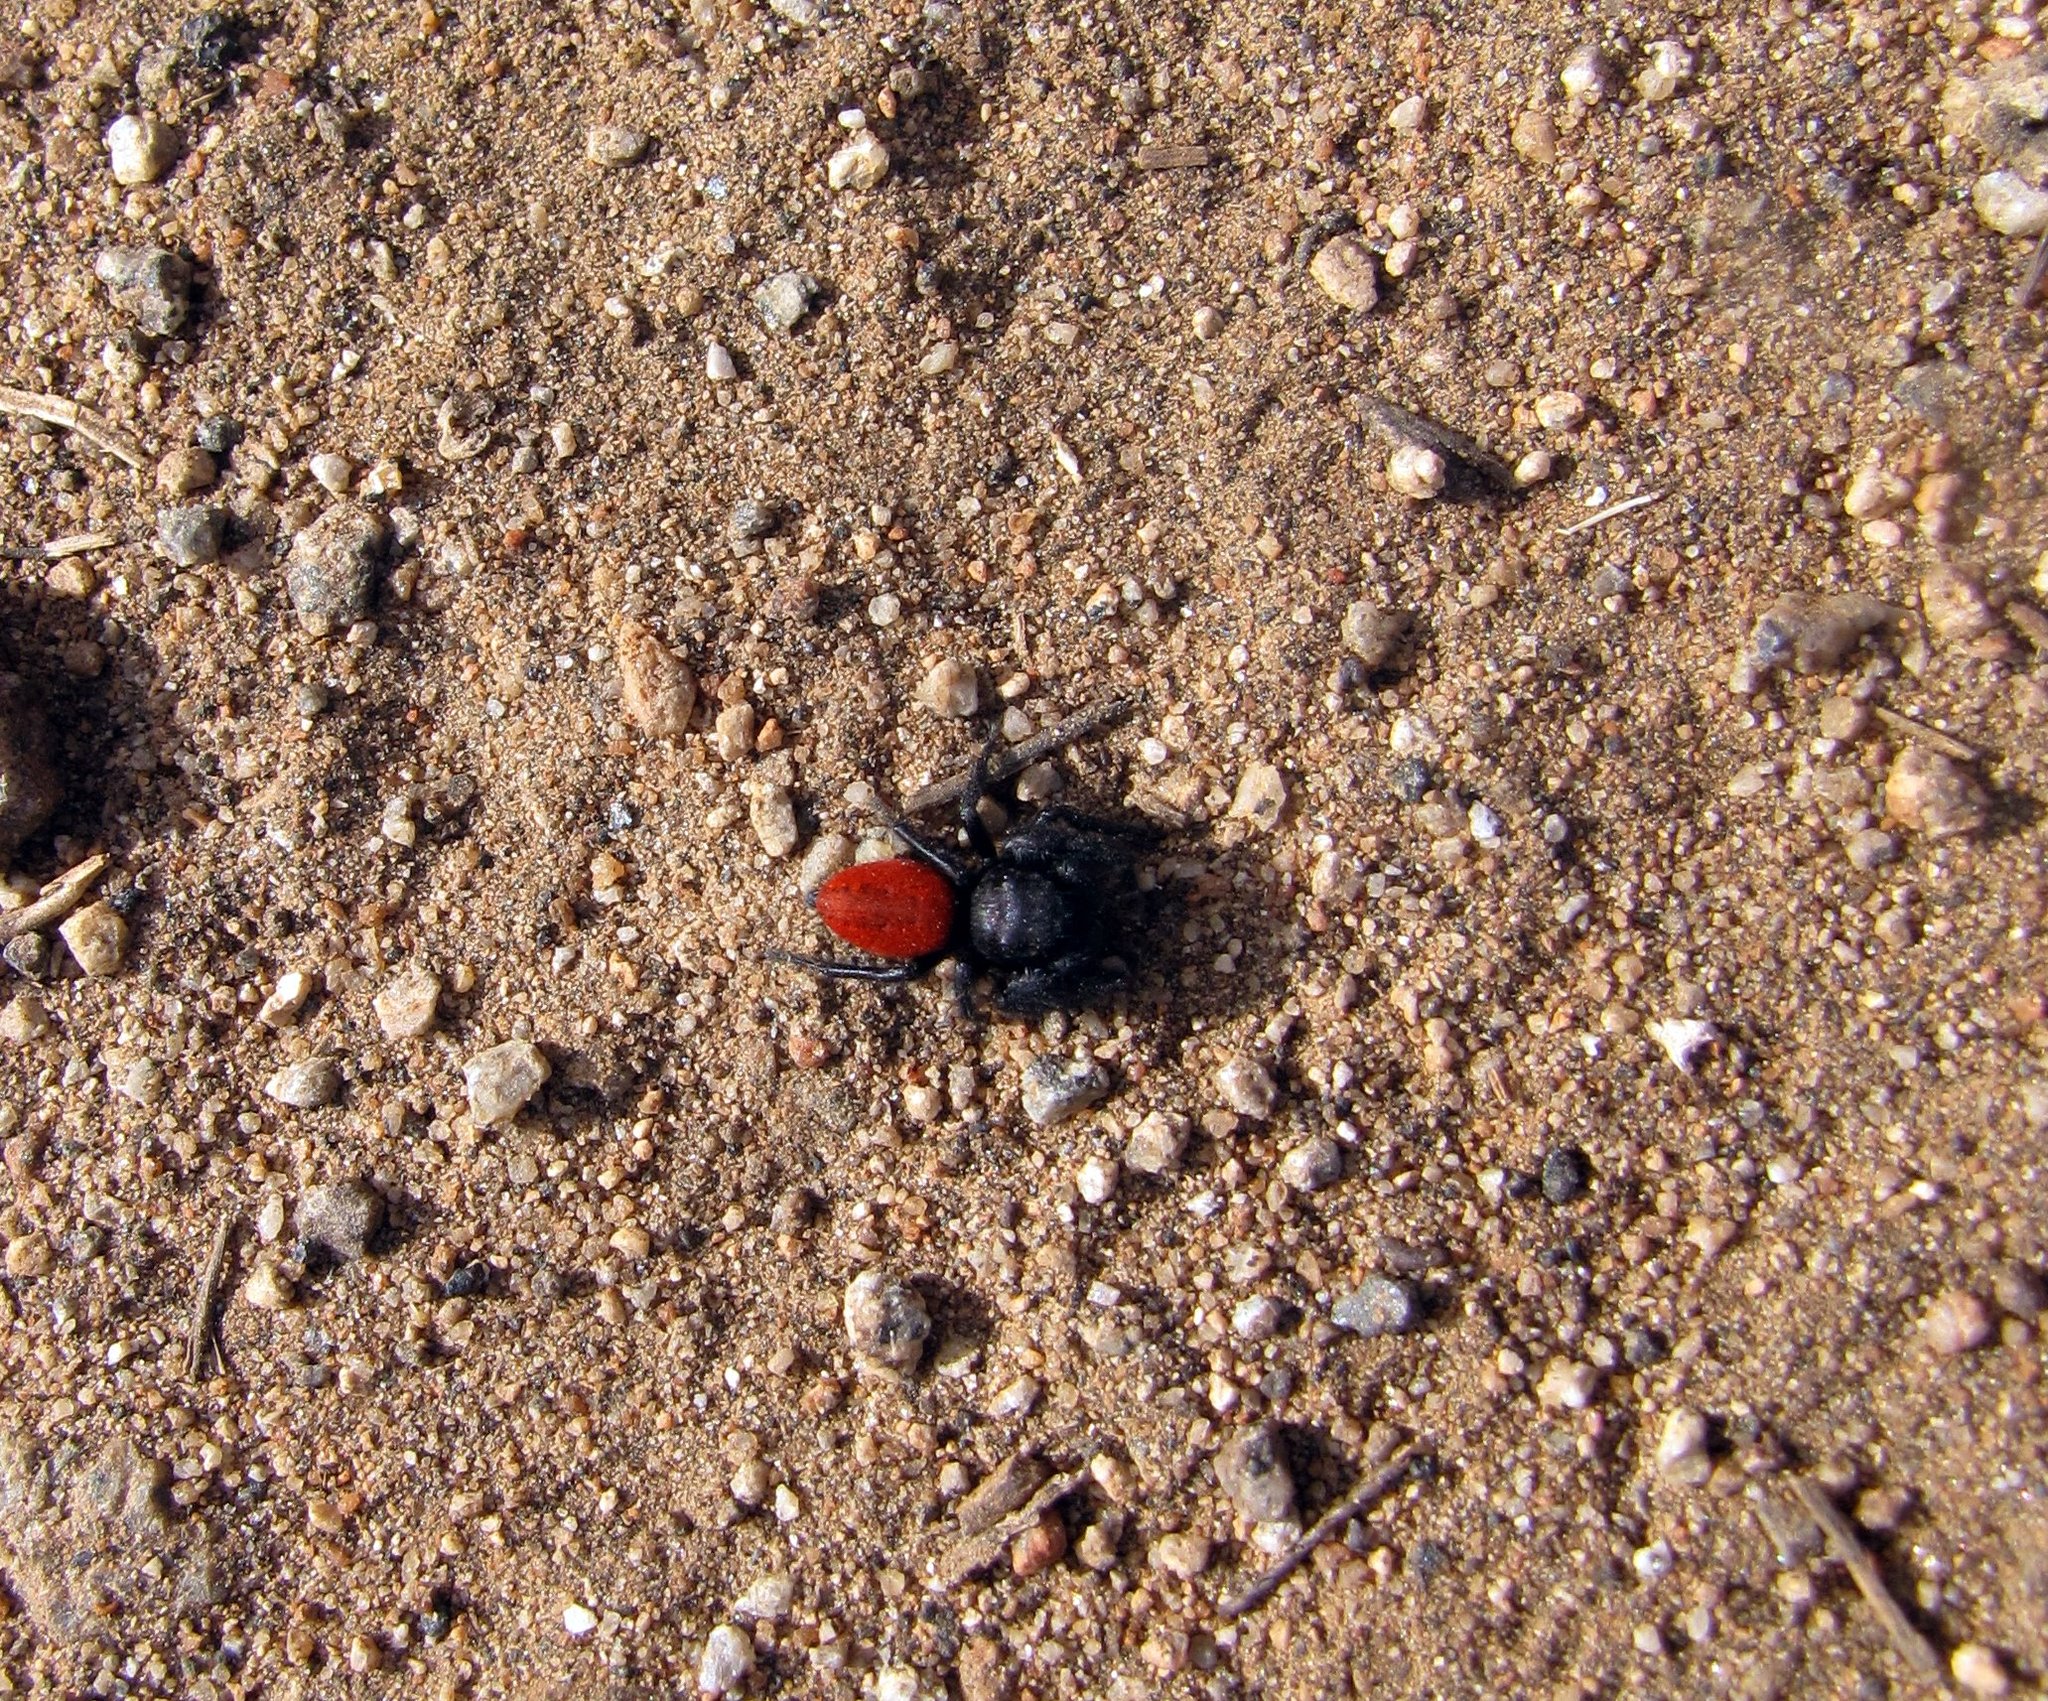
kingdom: Animalia
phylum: Arthropoda
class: Arachnida
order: Araneae
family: Salticidae
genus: Phidippus
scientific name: Phidippus johnsoni
